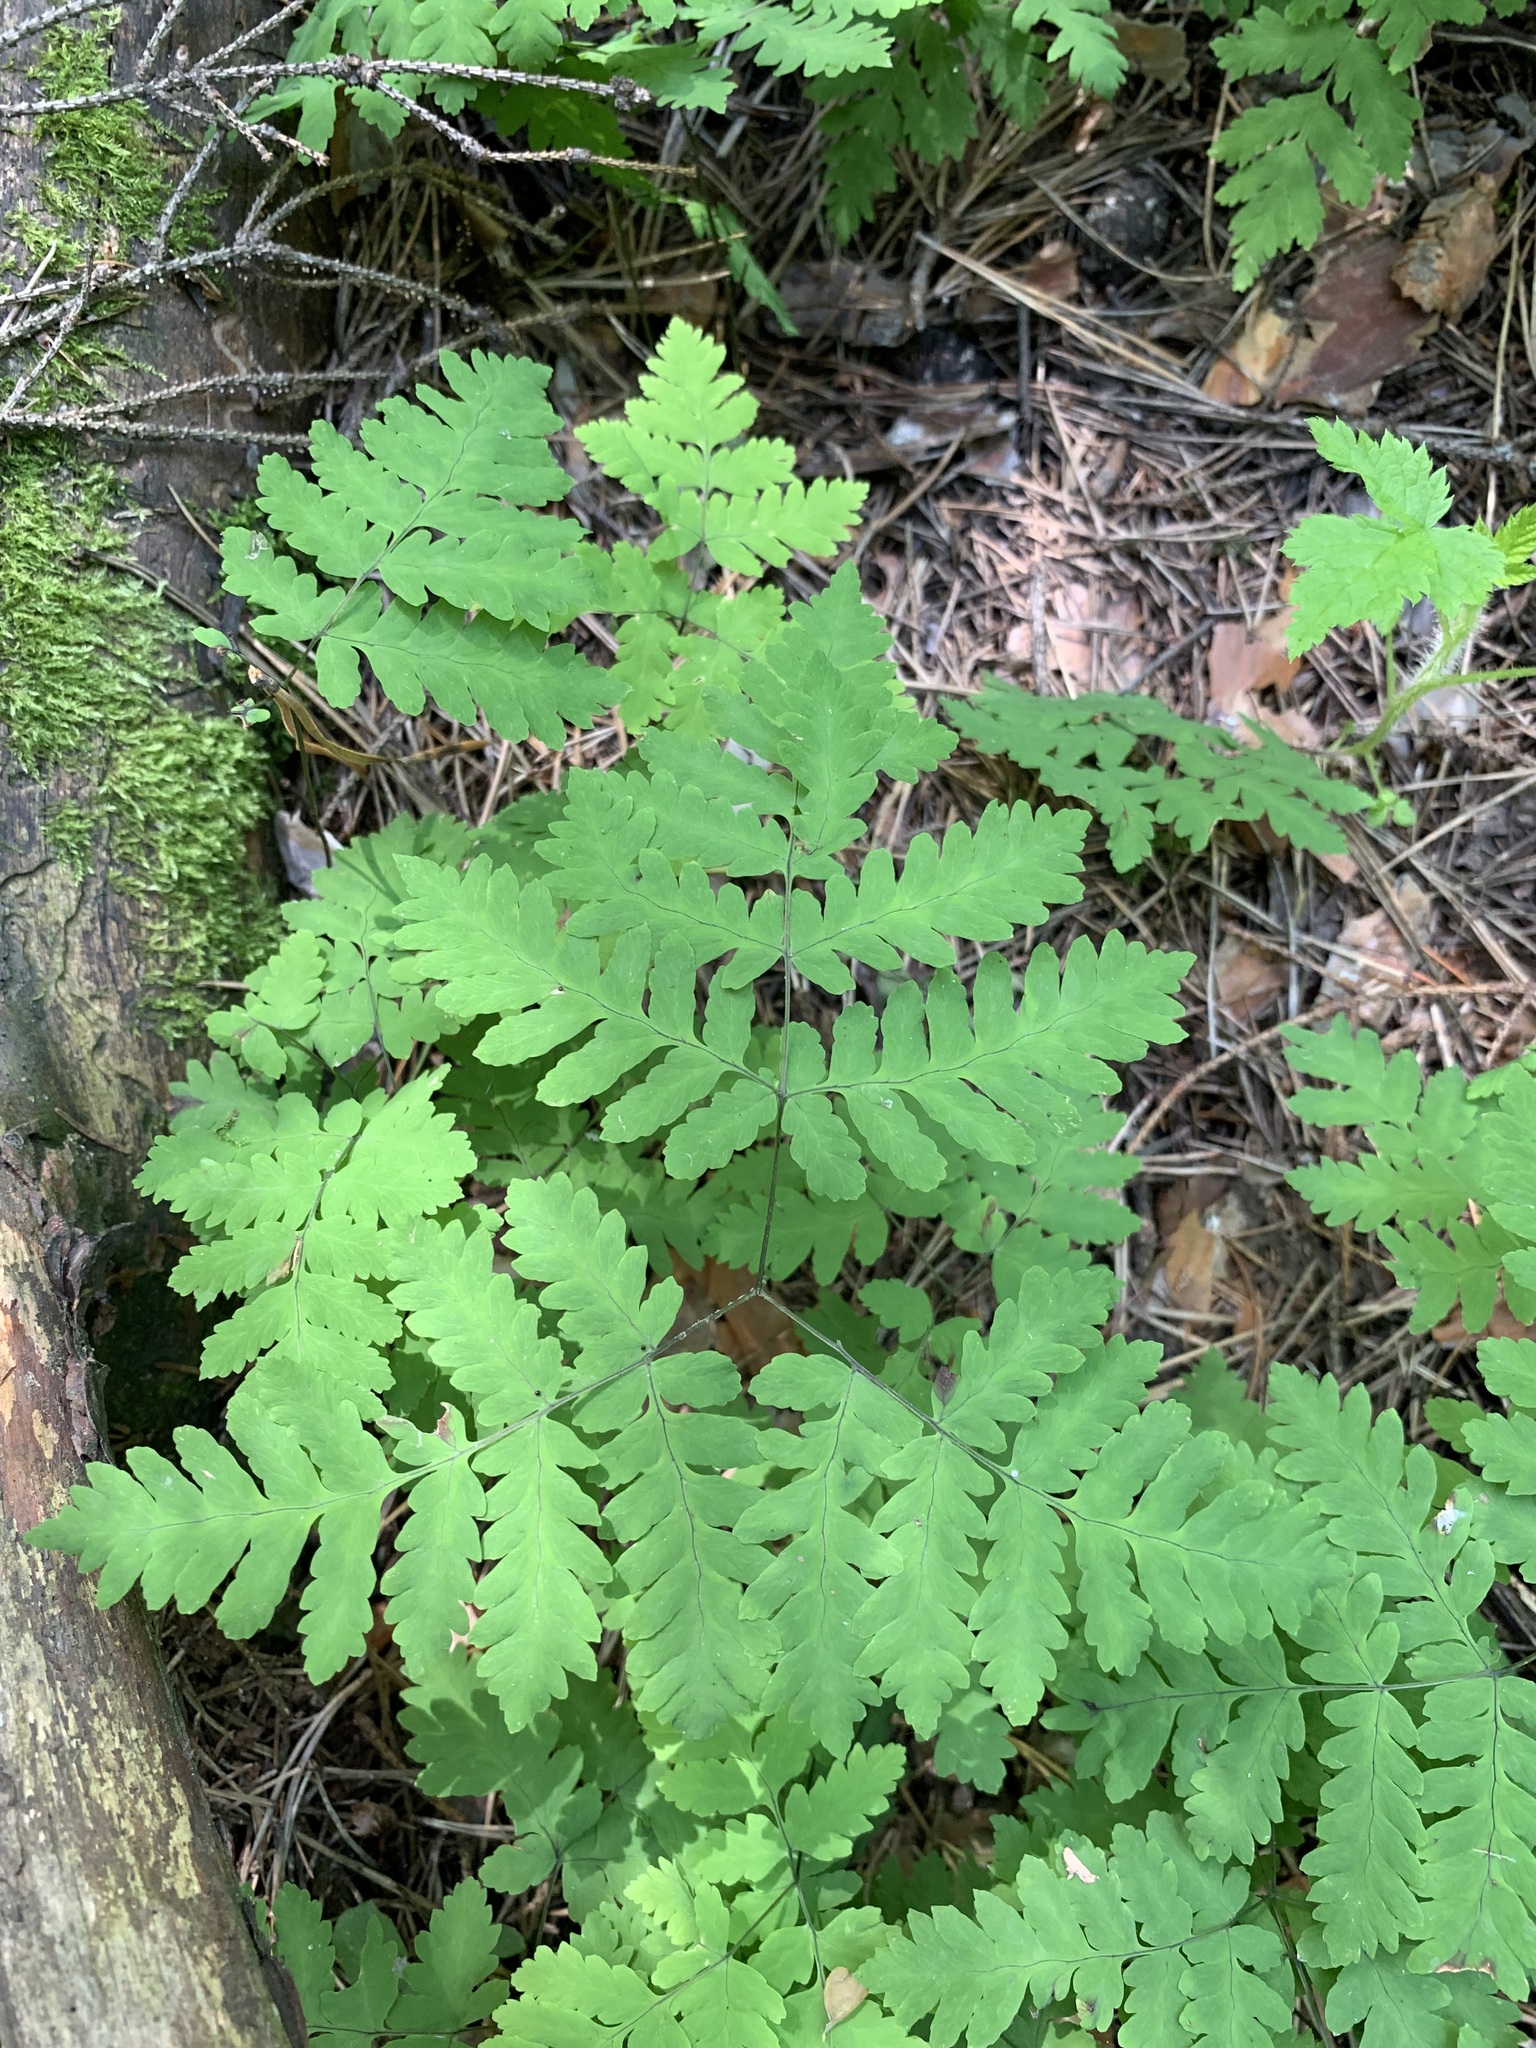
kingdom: Plantae
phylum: Tracheophyta
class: Polypodiopsida
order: Polypodiales
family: Cystopteridaceae
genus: Gymnocarpium
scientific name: Gymnocarpium dryopteris
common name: Oak fern
